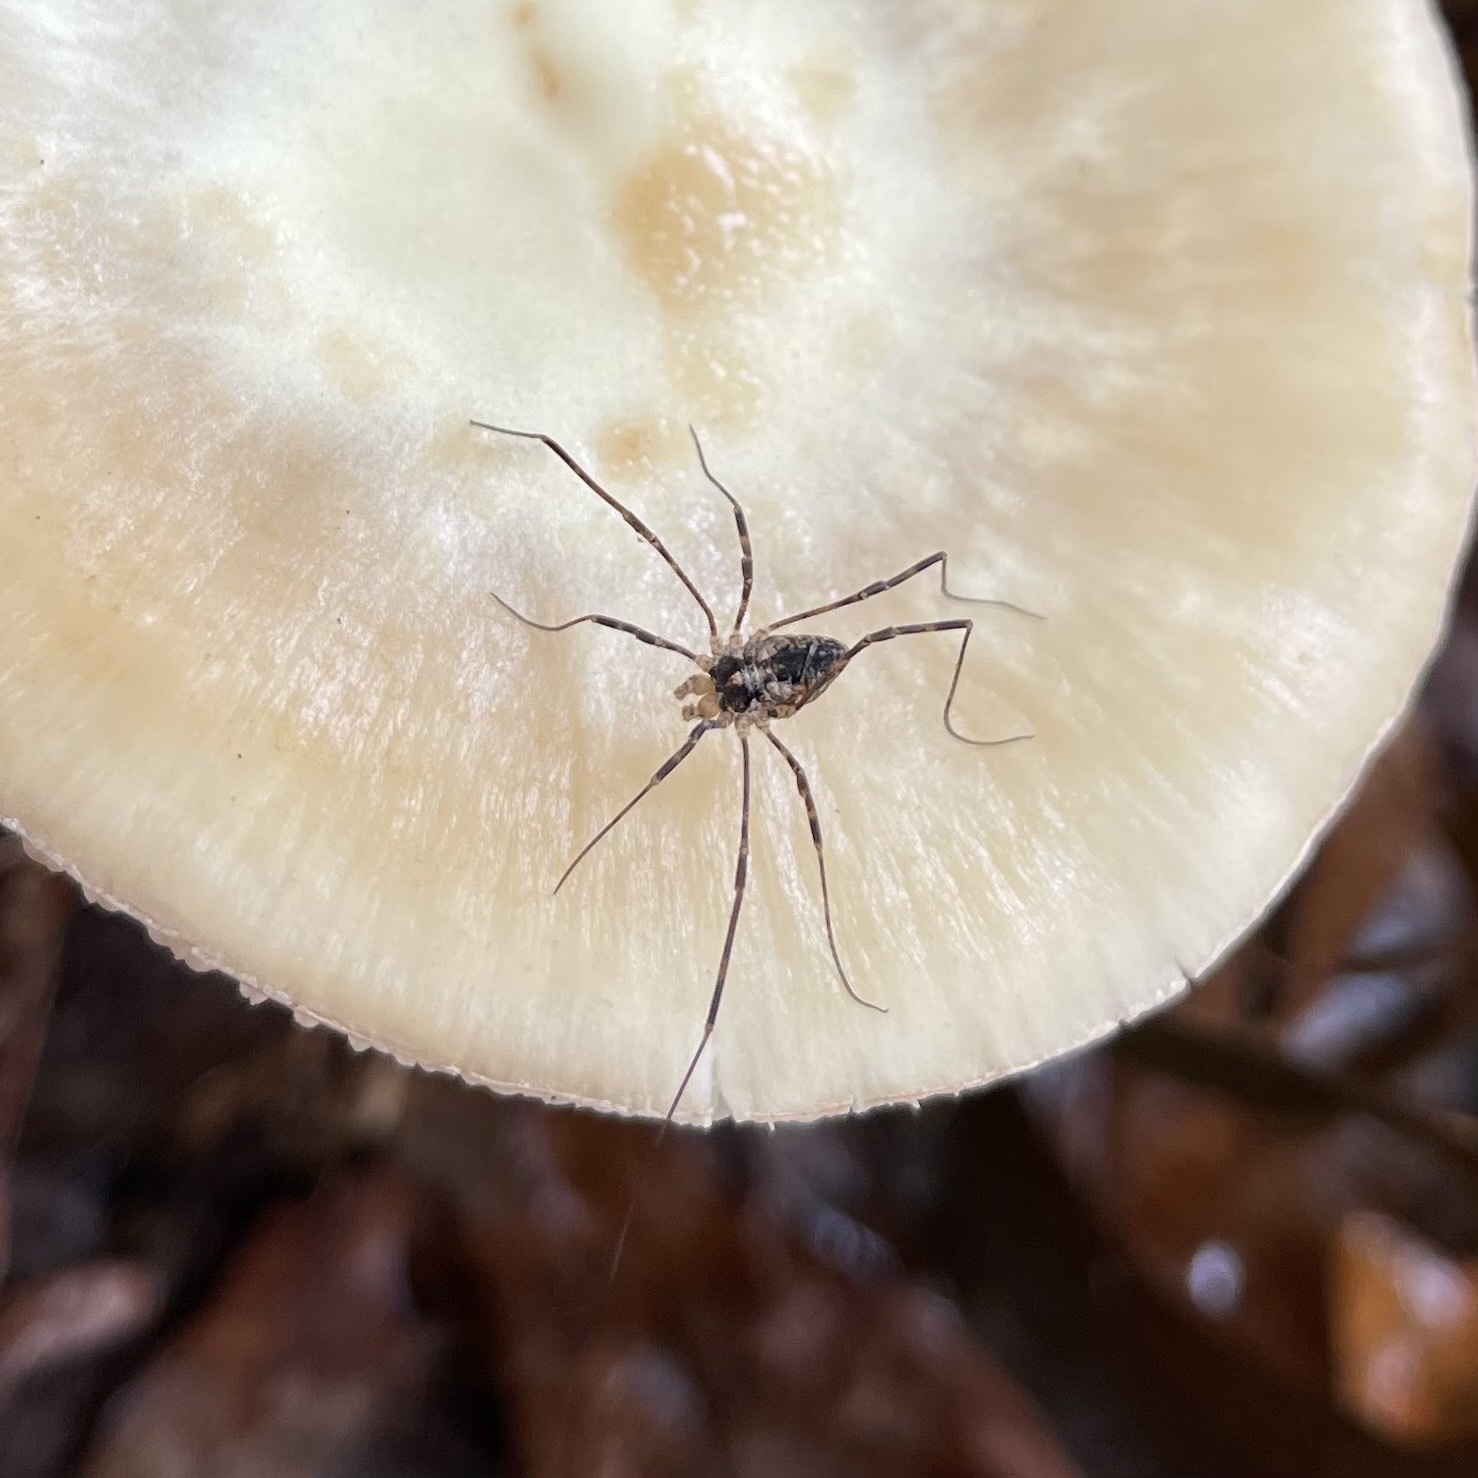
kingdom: Animalia
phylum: Arthropoda
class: Arachnida
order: Opiliones
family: Phalangiidae
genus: Odiellus
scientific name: Odiellus pictus
